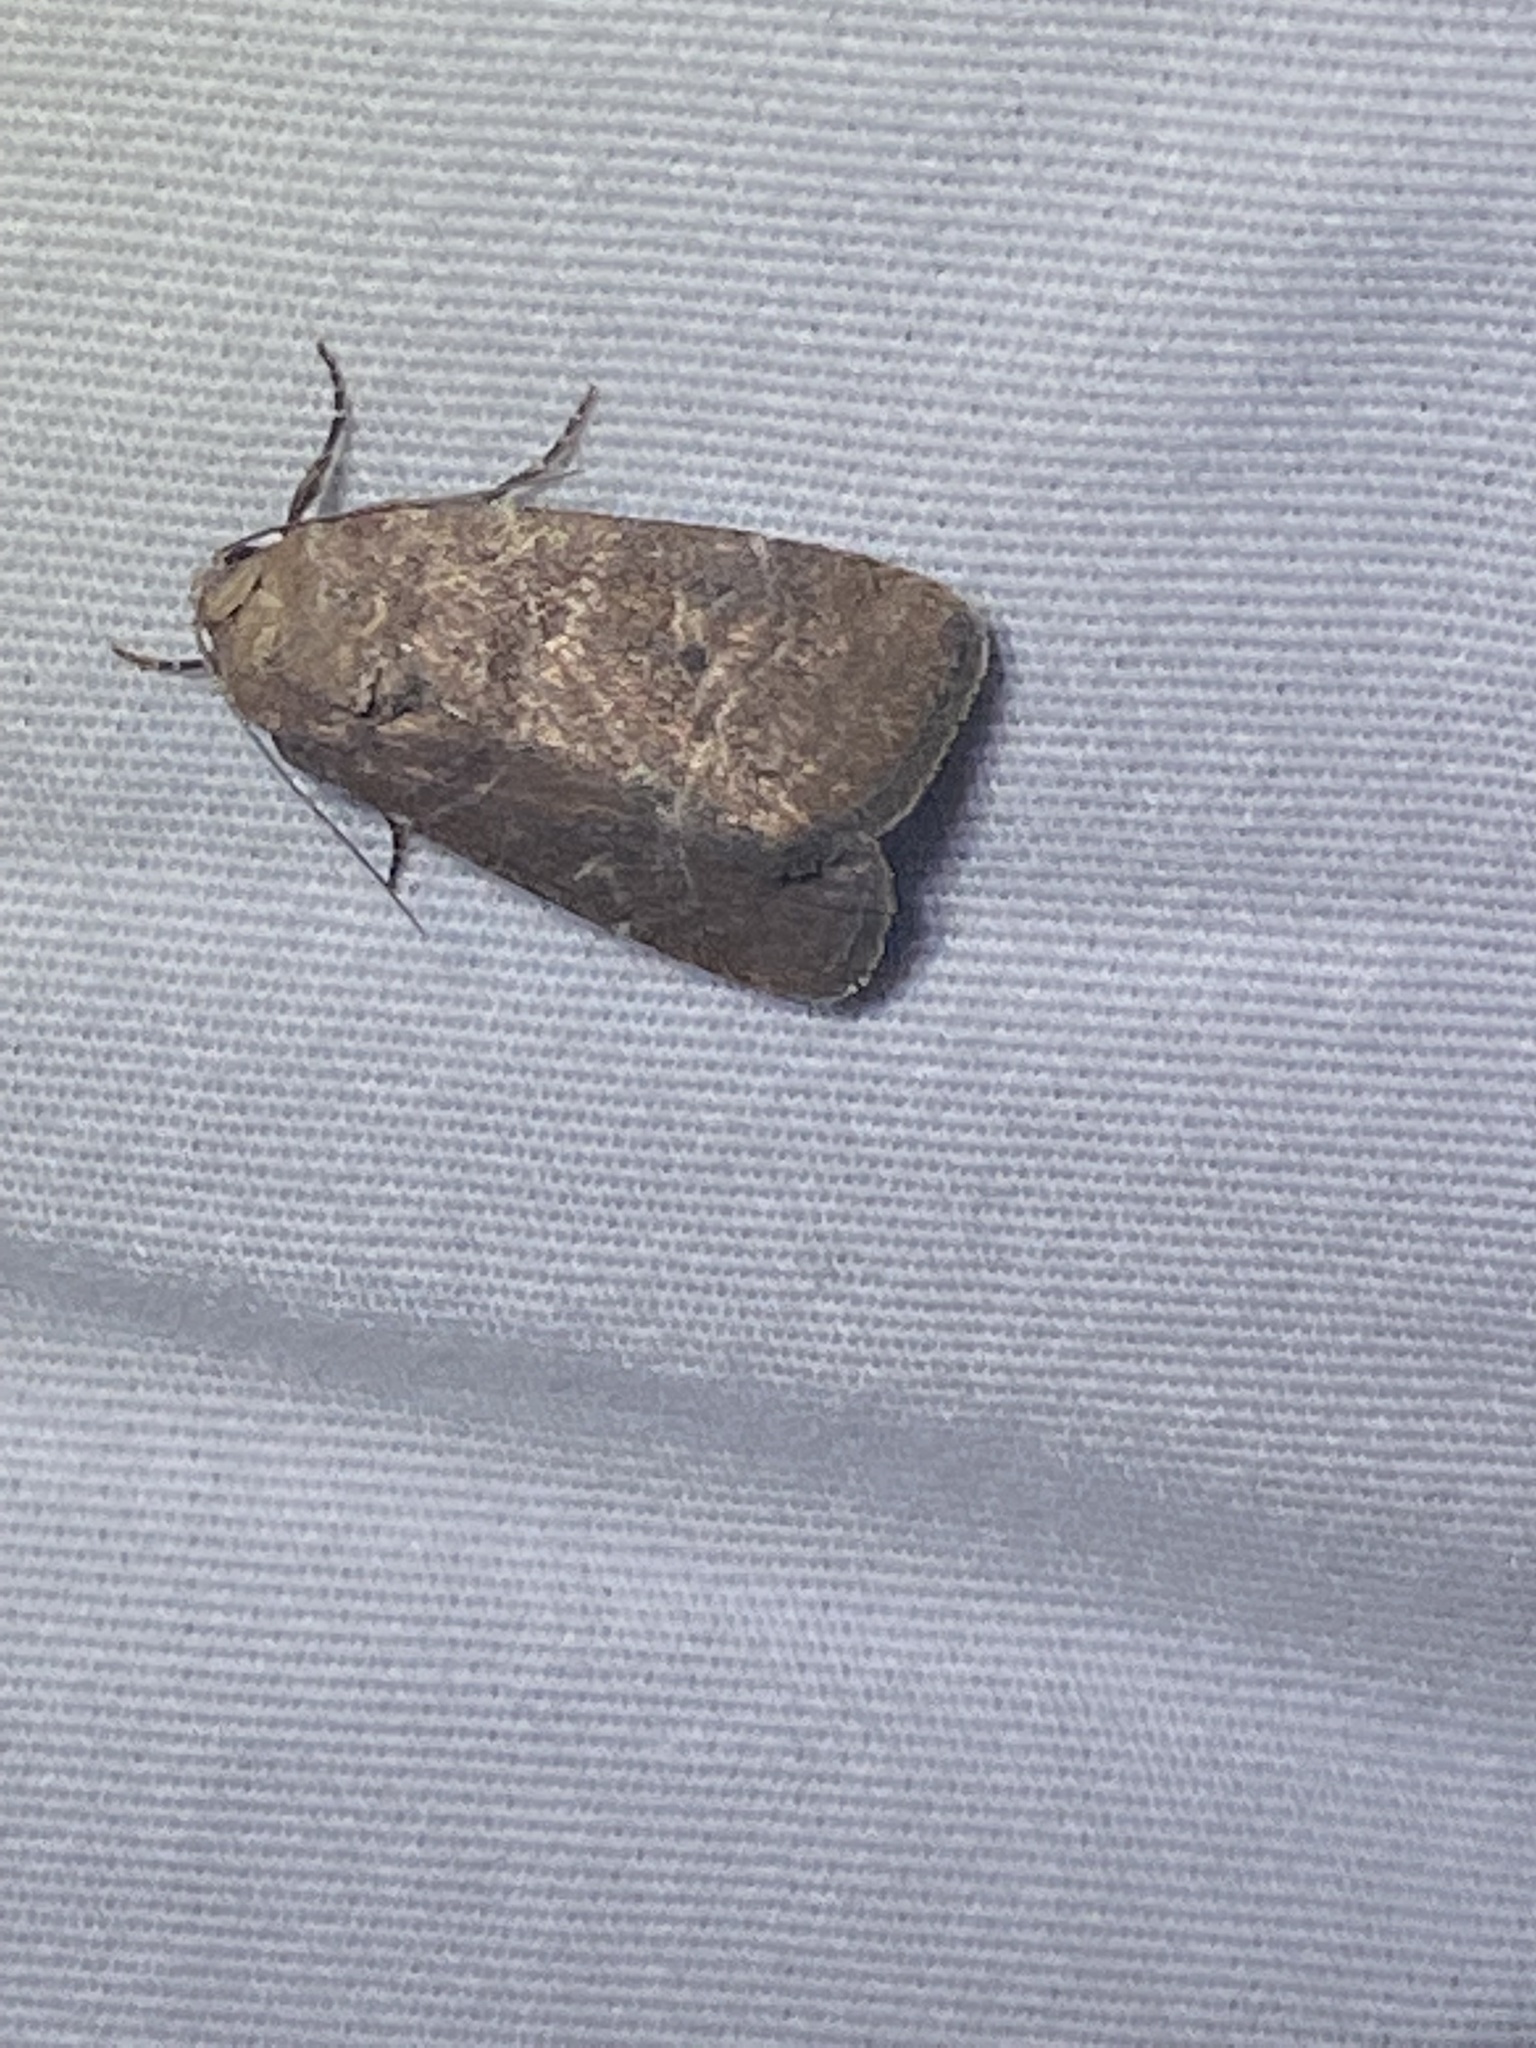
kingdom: Animalia
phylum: Arthropoda
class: Insecta
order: Lepidoptera
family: Noctuidae
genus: Elaphria
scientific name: Elaphria grata
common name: Grateful midget moth
